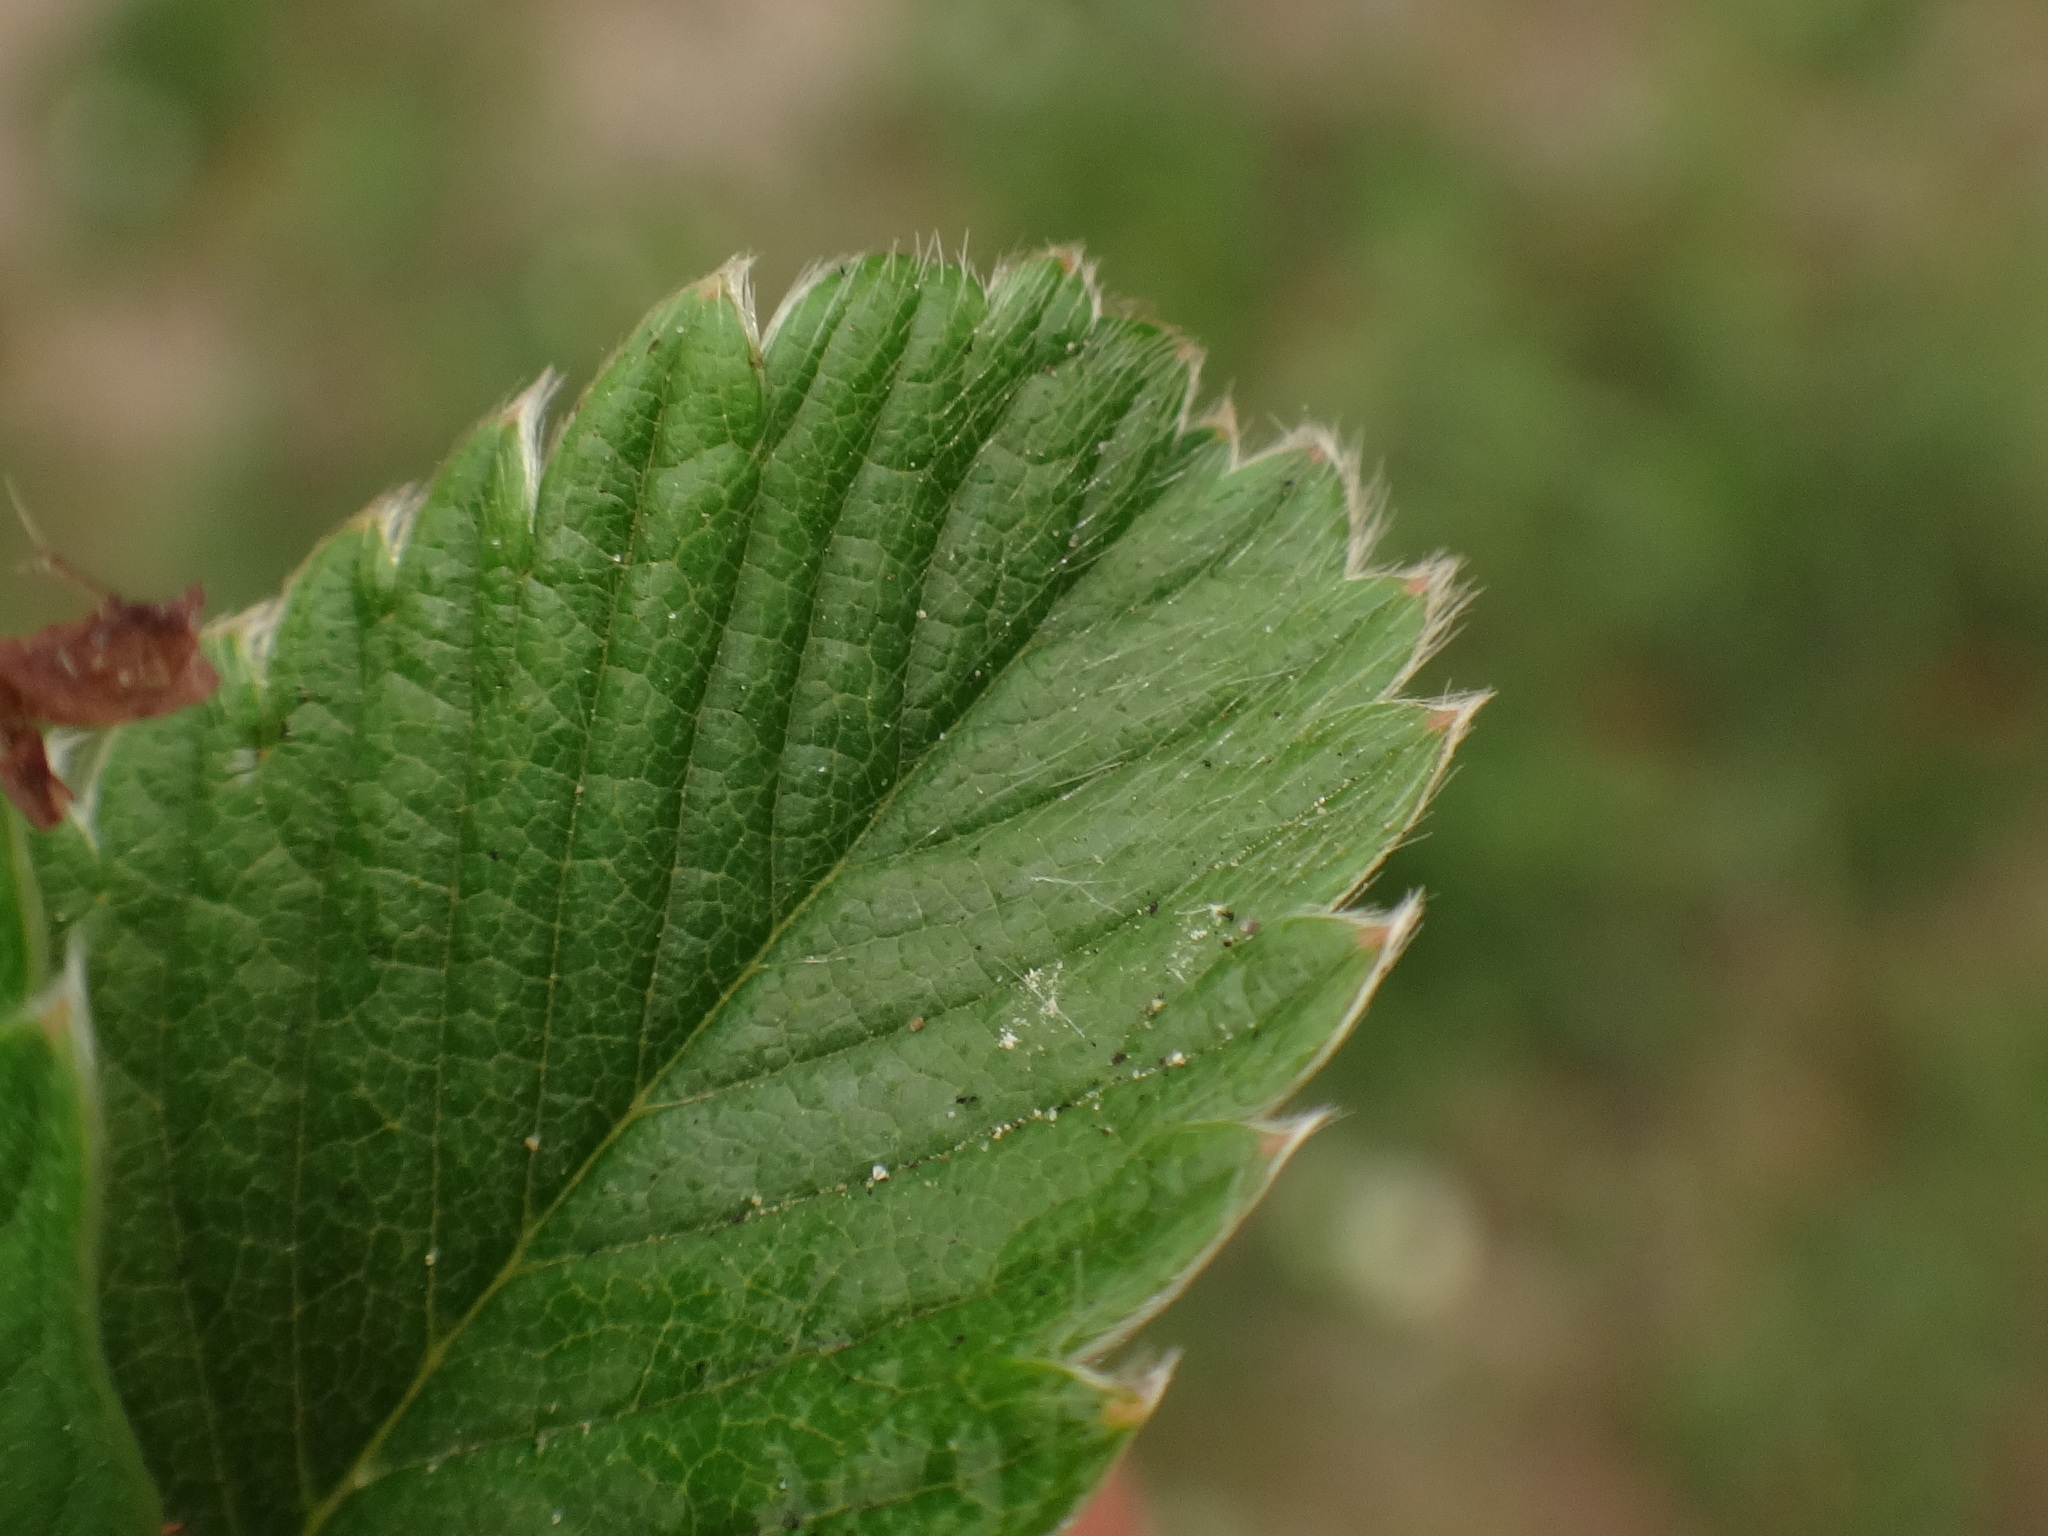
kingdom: Plantae
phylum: Tracheophyta
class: Magnoliopsida
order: Rosales
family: Rosaceae
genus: Fragaria
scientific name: Fragaria viridis
